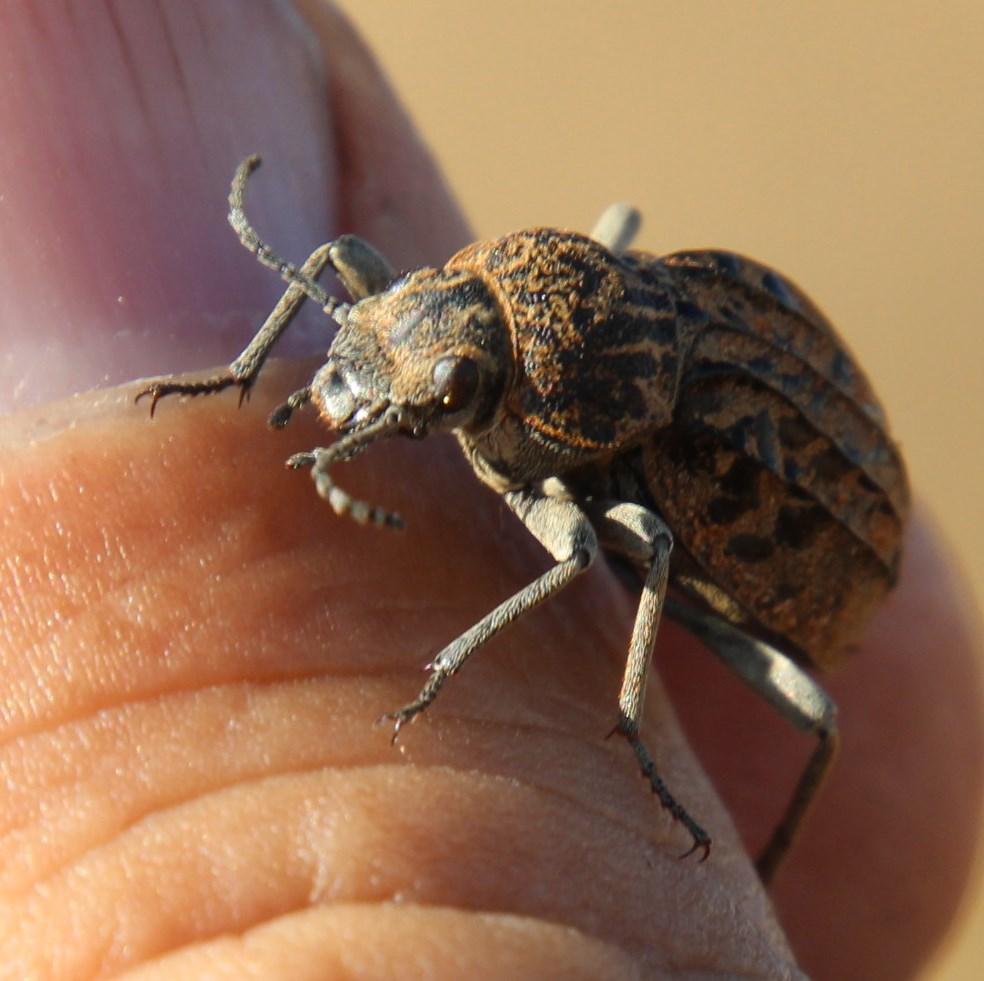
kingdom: Animalia
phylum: Arthropoda
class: Insecta
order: Coleoptera
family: Tenebrionidae
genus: Somaticus
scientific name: Somaticus carinatus
